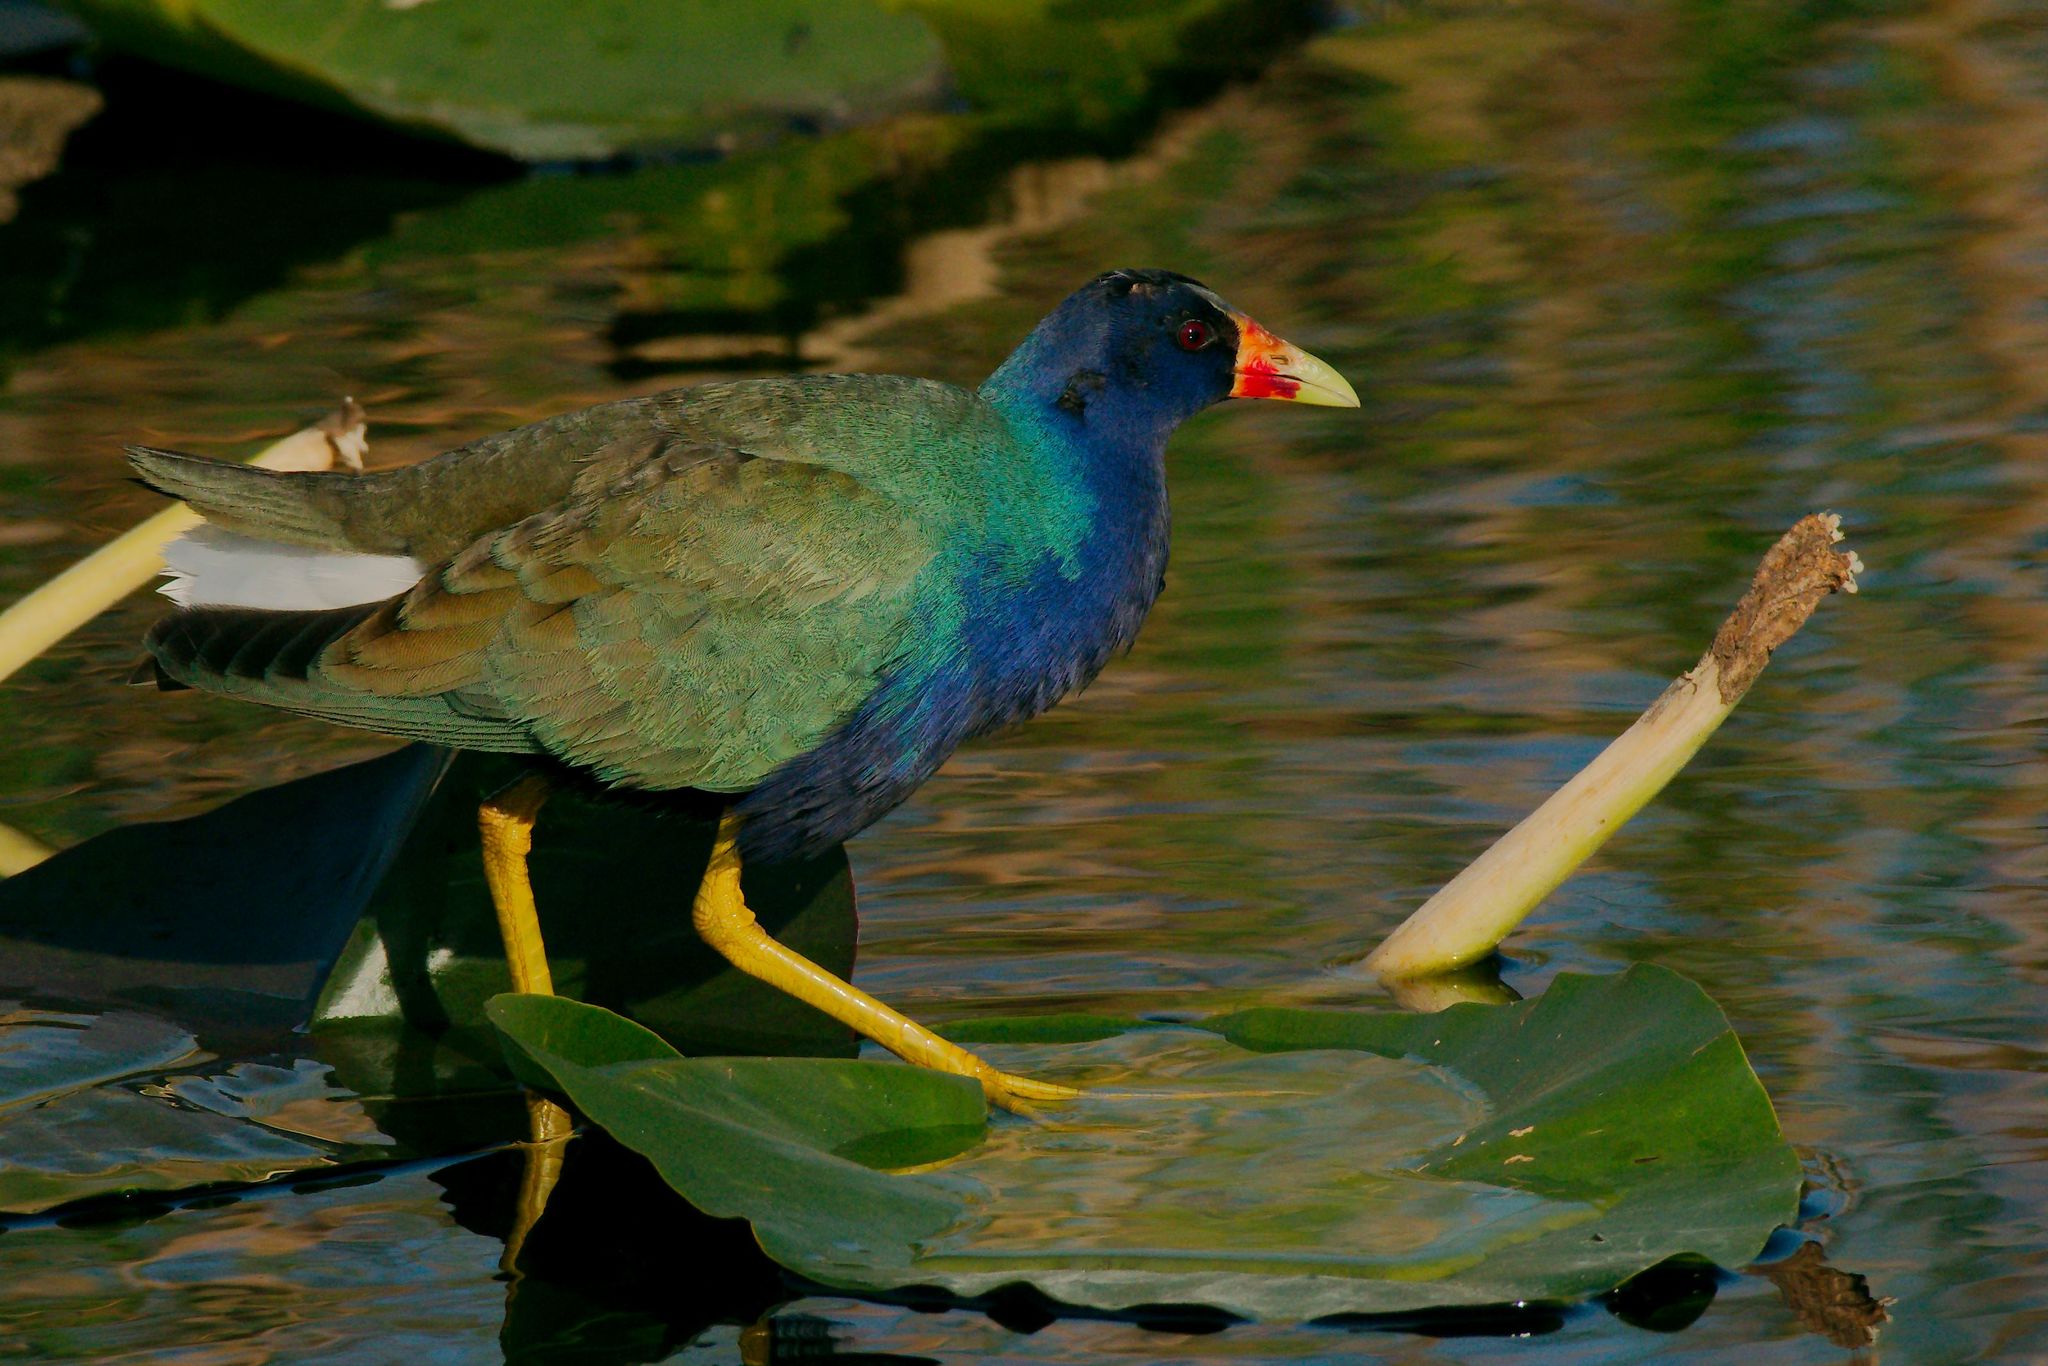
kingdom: Animalia
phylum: Chordata
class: Aves
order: Gruiformes
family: Rallidae
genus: Porphyrio
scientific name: Porphyrio martinica
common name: Purple gallinule
